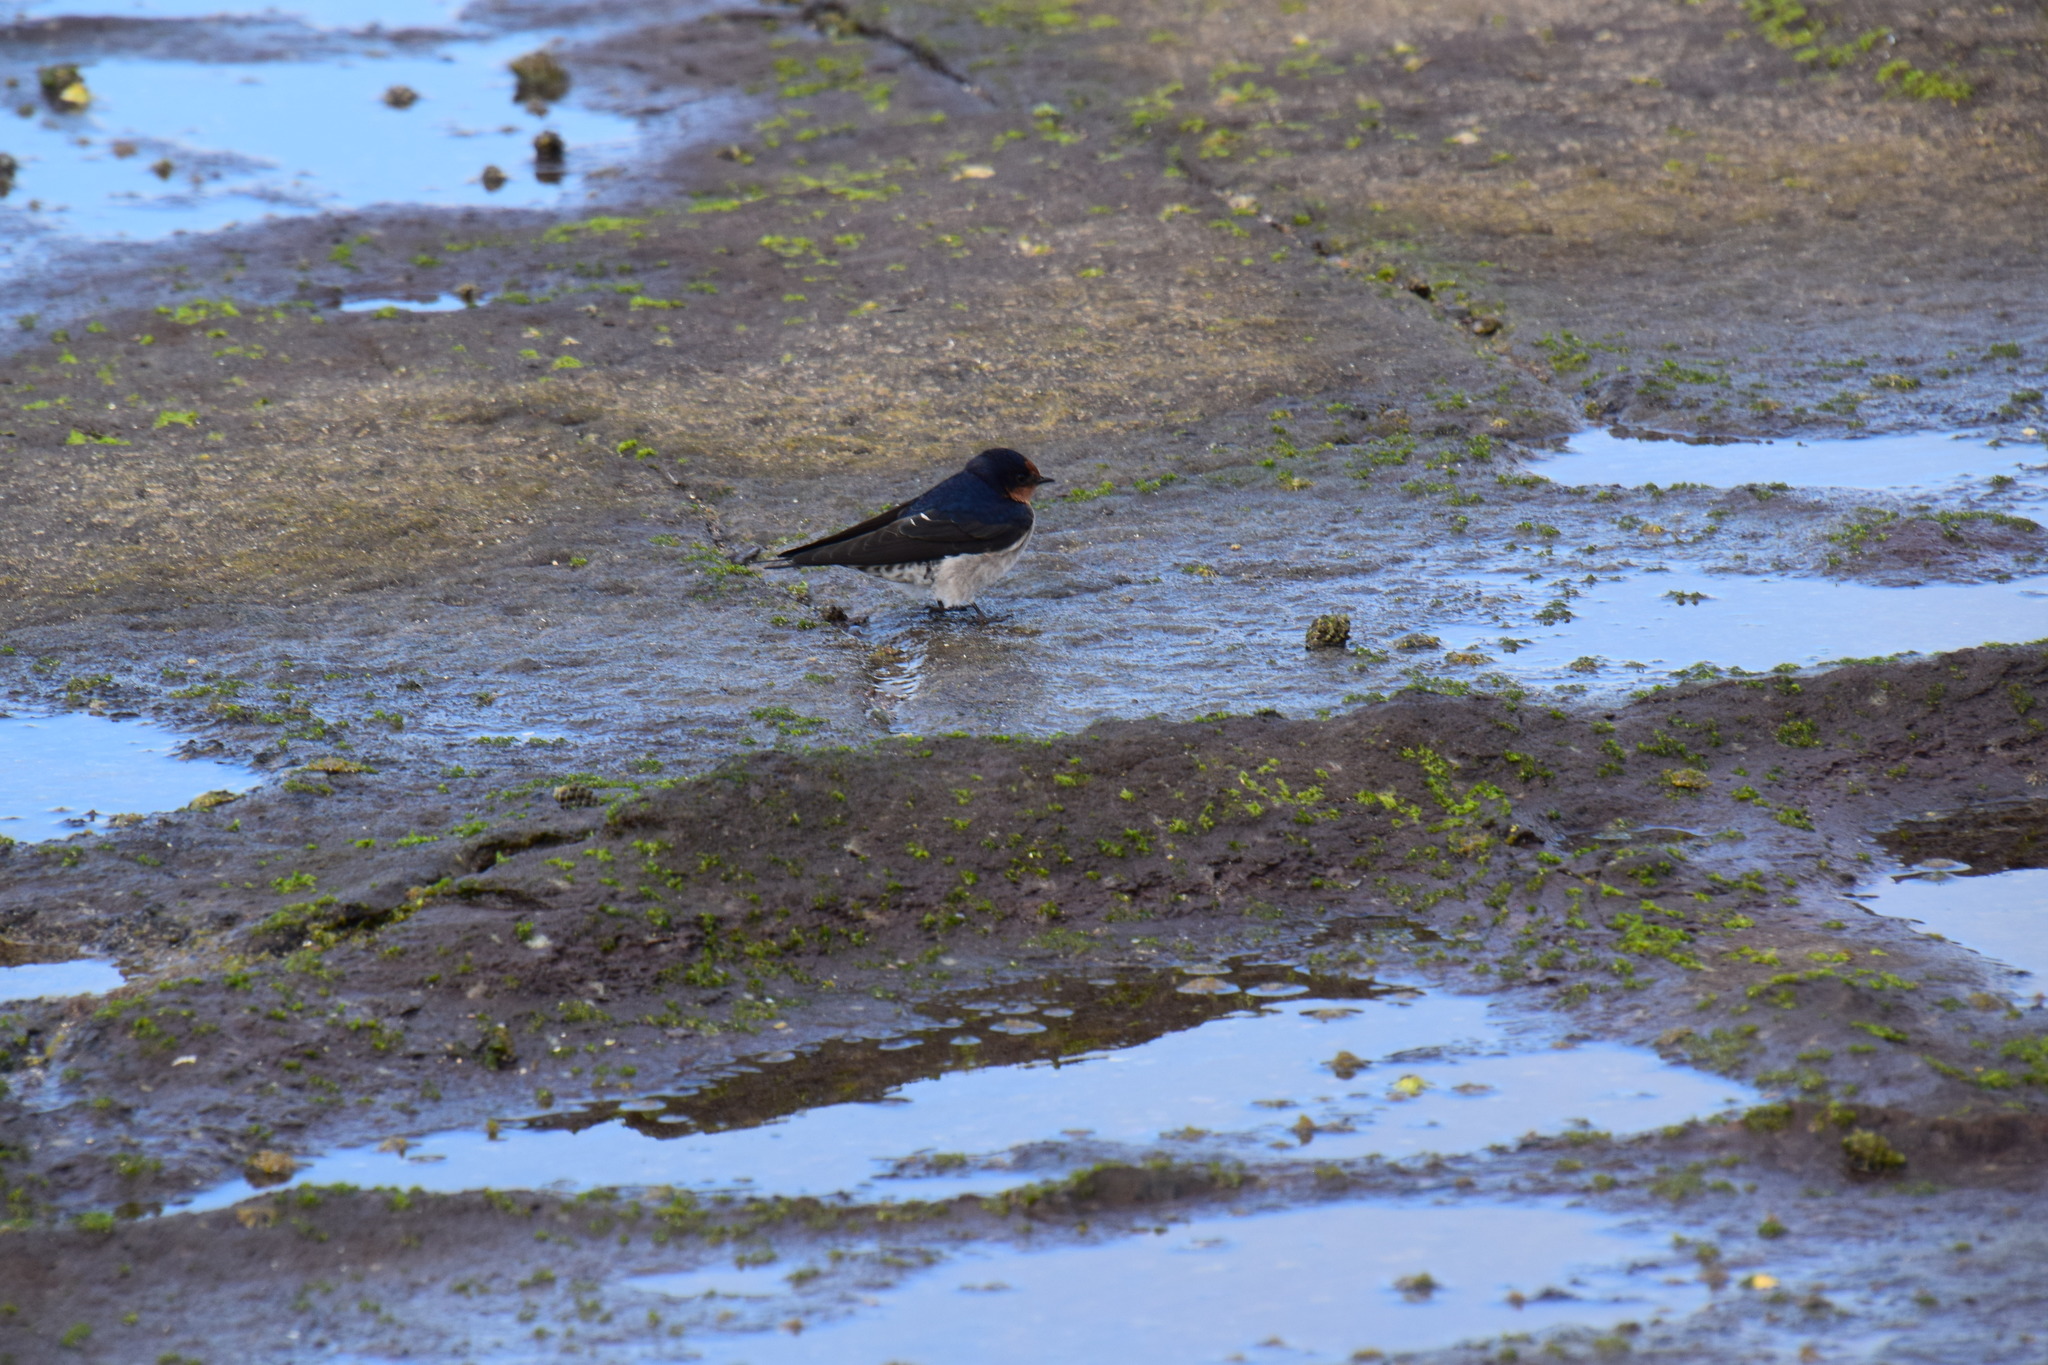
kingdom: Animalia
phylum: Chordata
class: Aves
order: Passeriformes
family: Hirundinidae
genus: Hirundo
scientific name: Hirundo neoxena
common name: Welcome swallow
